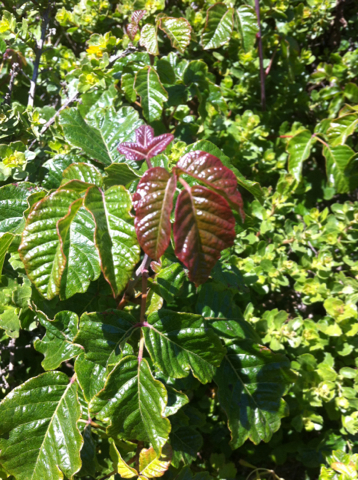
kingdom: Plantae
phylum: Tracheophyta
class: Magnoliopsida
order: Sapindales
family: Anacardiaceae
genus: Toxicodendron
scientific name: Toxicodendron diversilobum
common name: Pacific poison-oak
